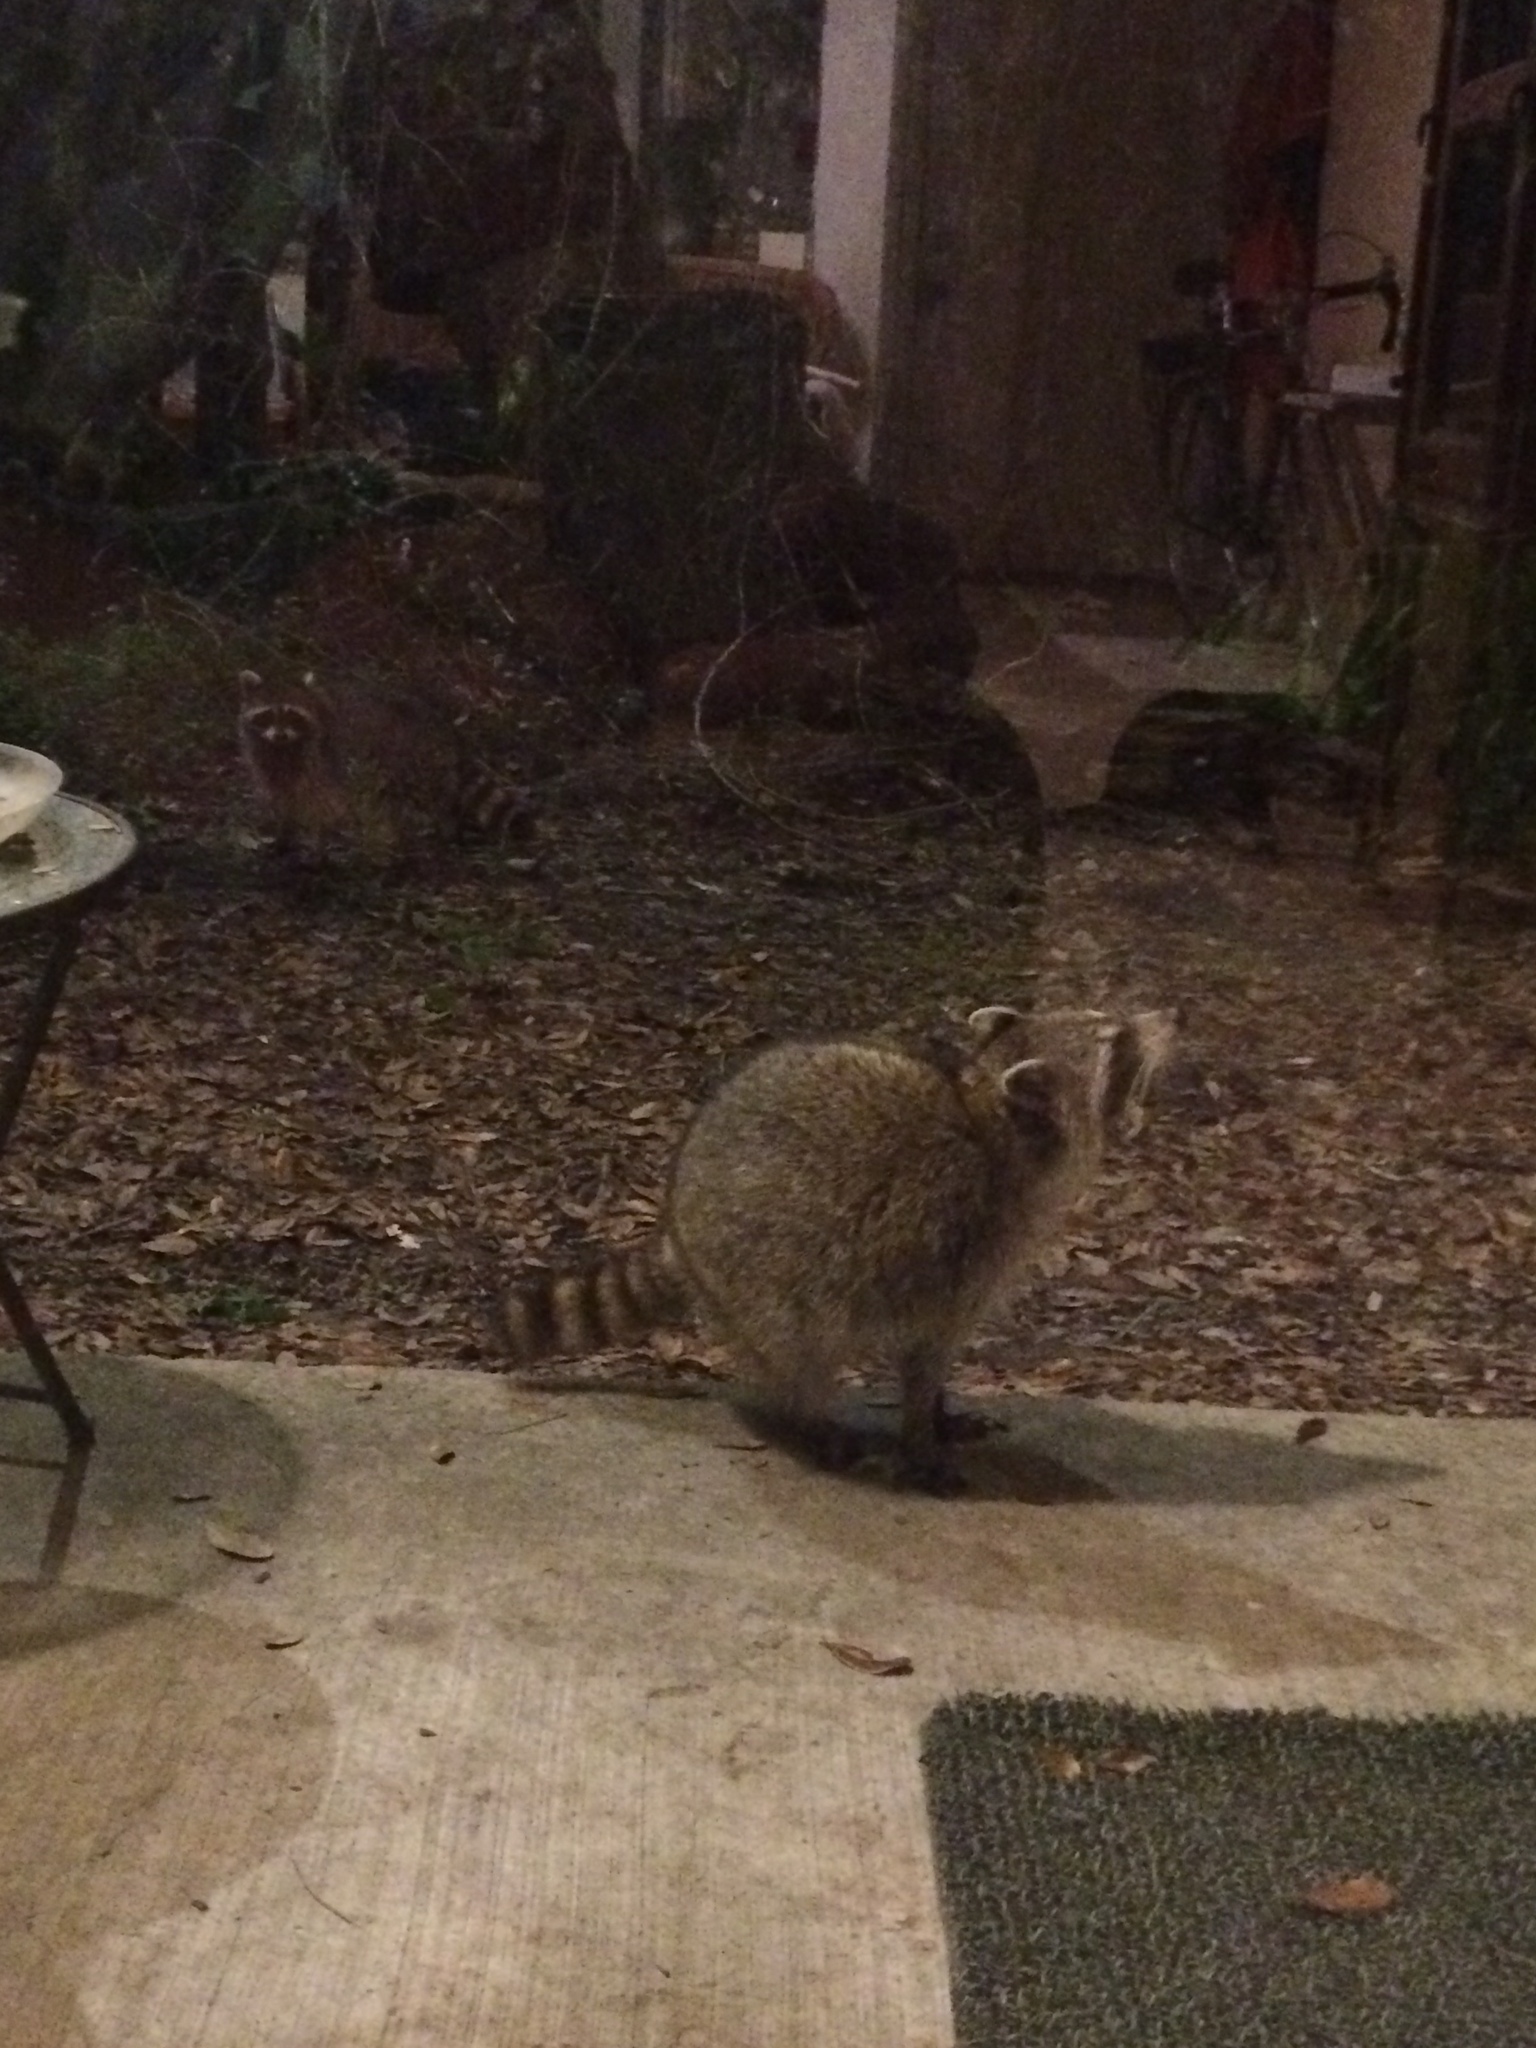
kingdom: Animalia
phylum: Chordata
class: Mammalia
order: Carnivora
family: Procyonidae
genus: Procyon
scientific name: Procyon lotor
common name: Raccoon
